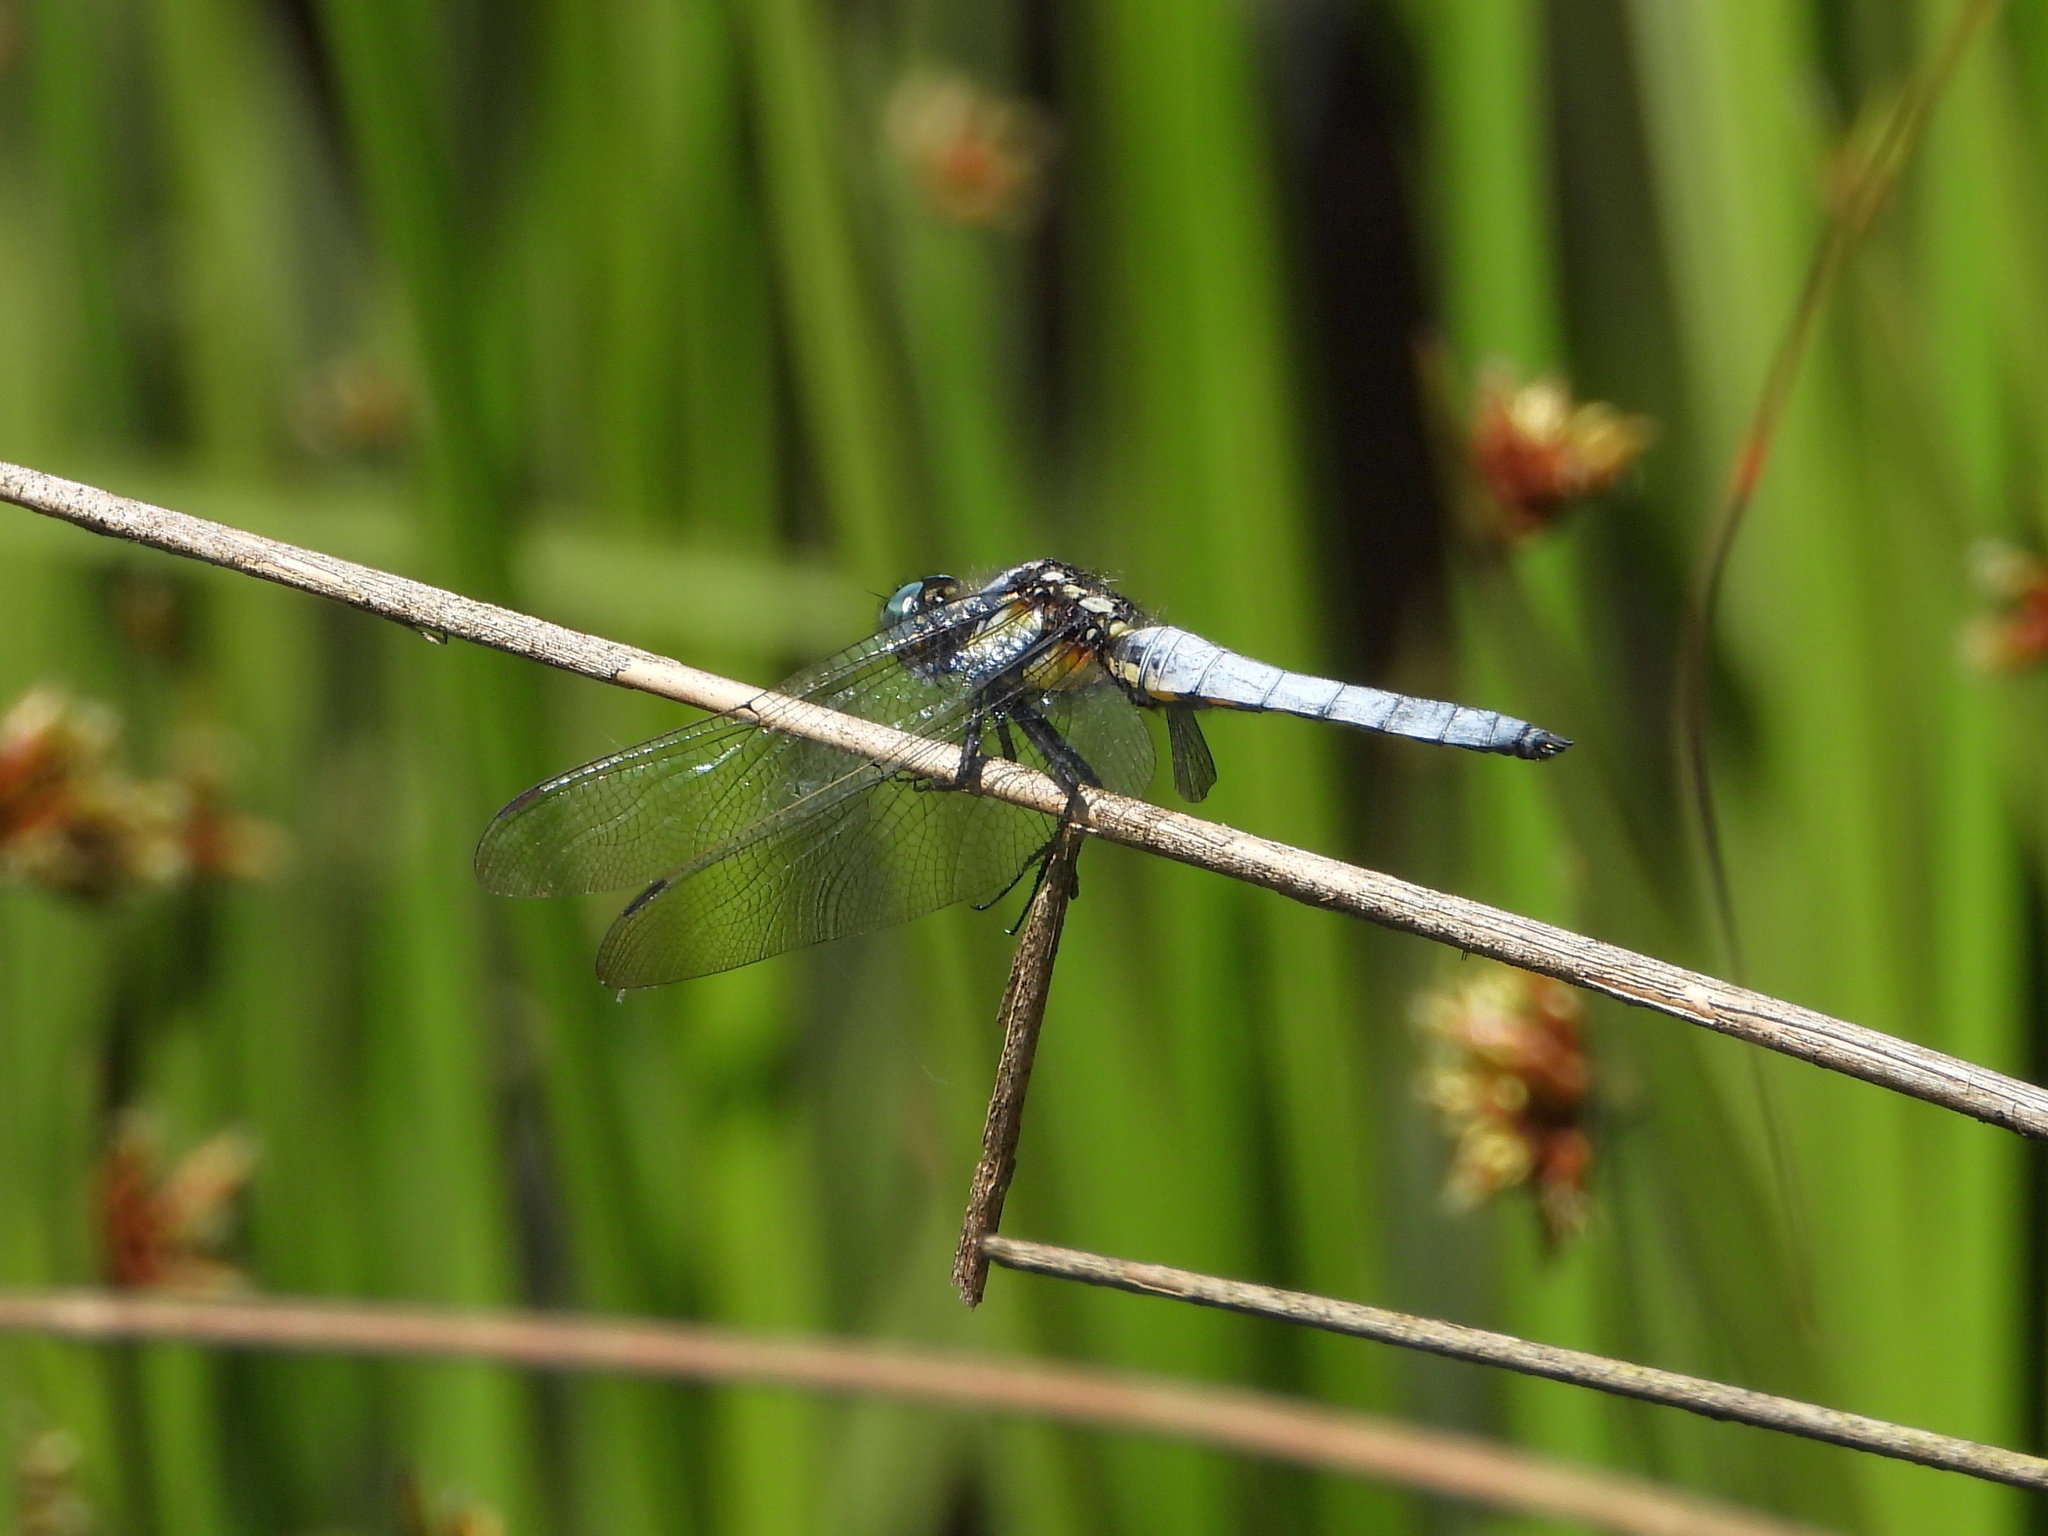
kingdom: Animalia
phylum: Arthropoda
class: Insecta
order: Odonata
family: Libellulidae
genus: Orthetrum
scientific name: Orthetrum internum
